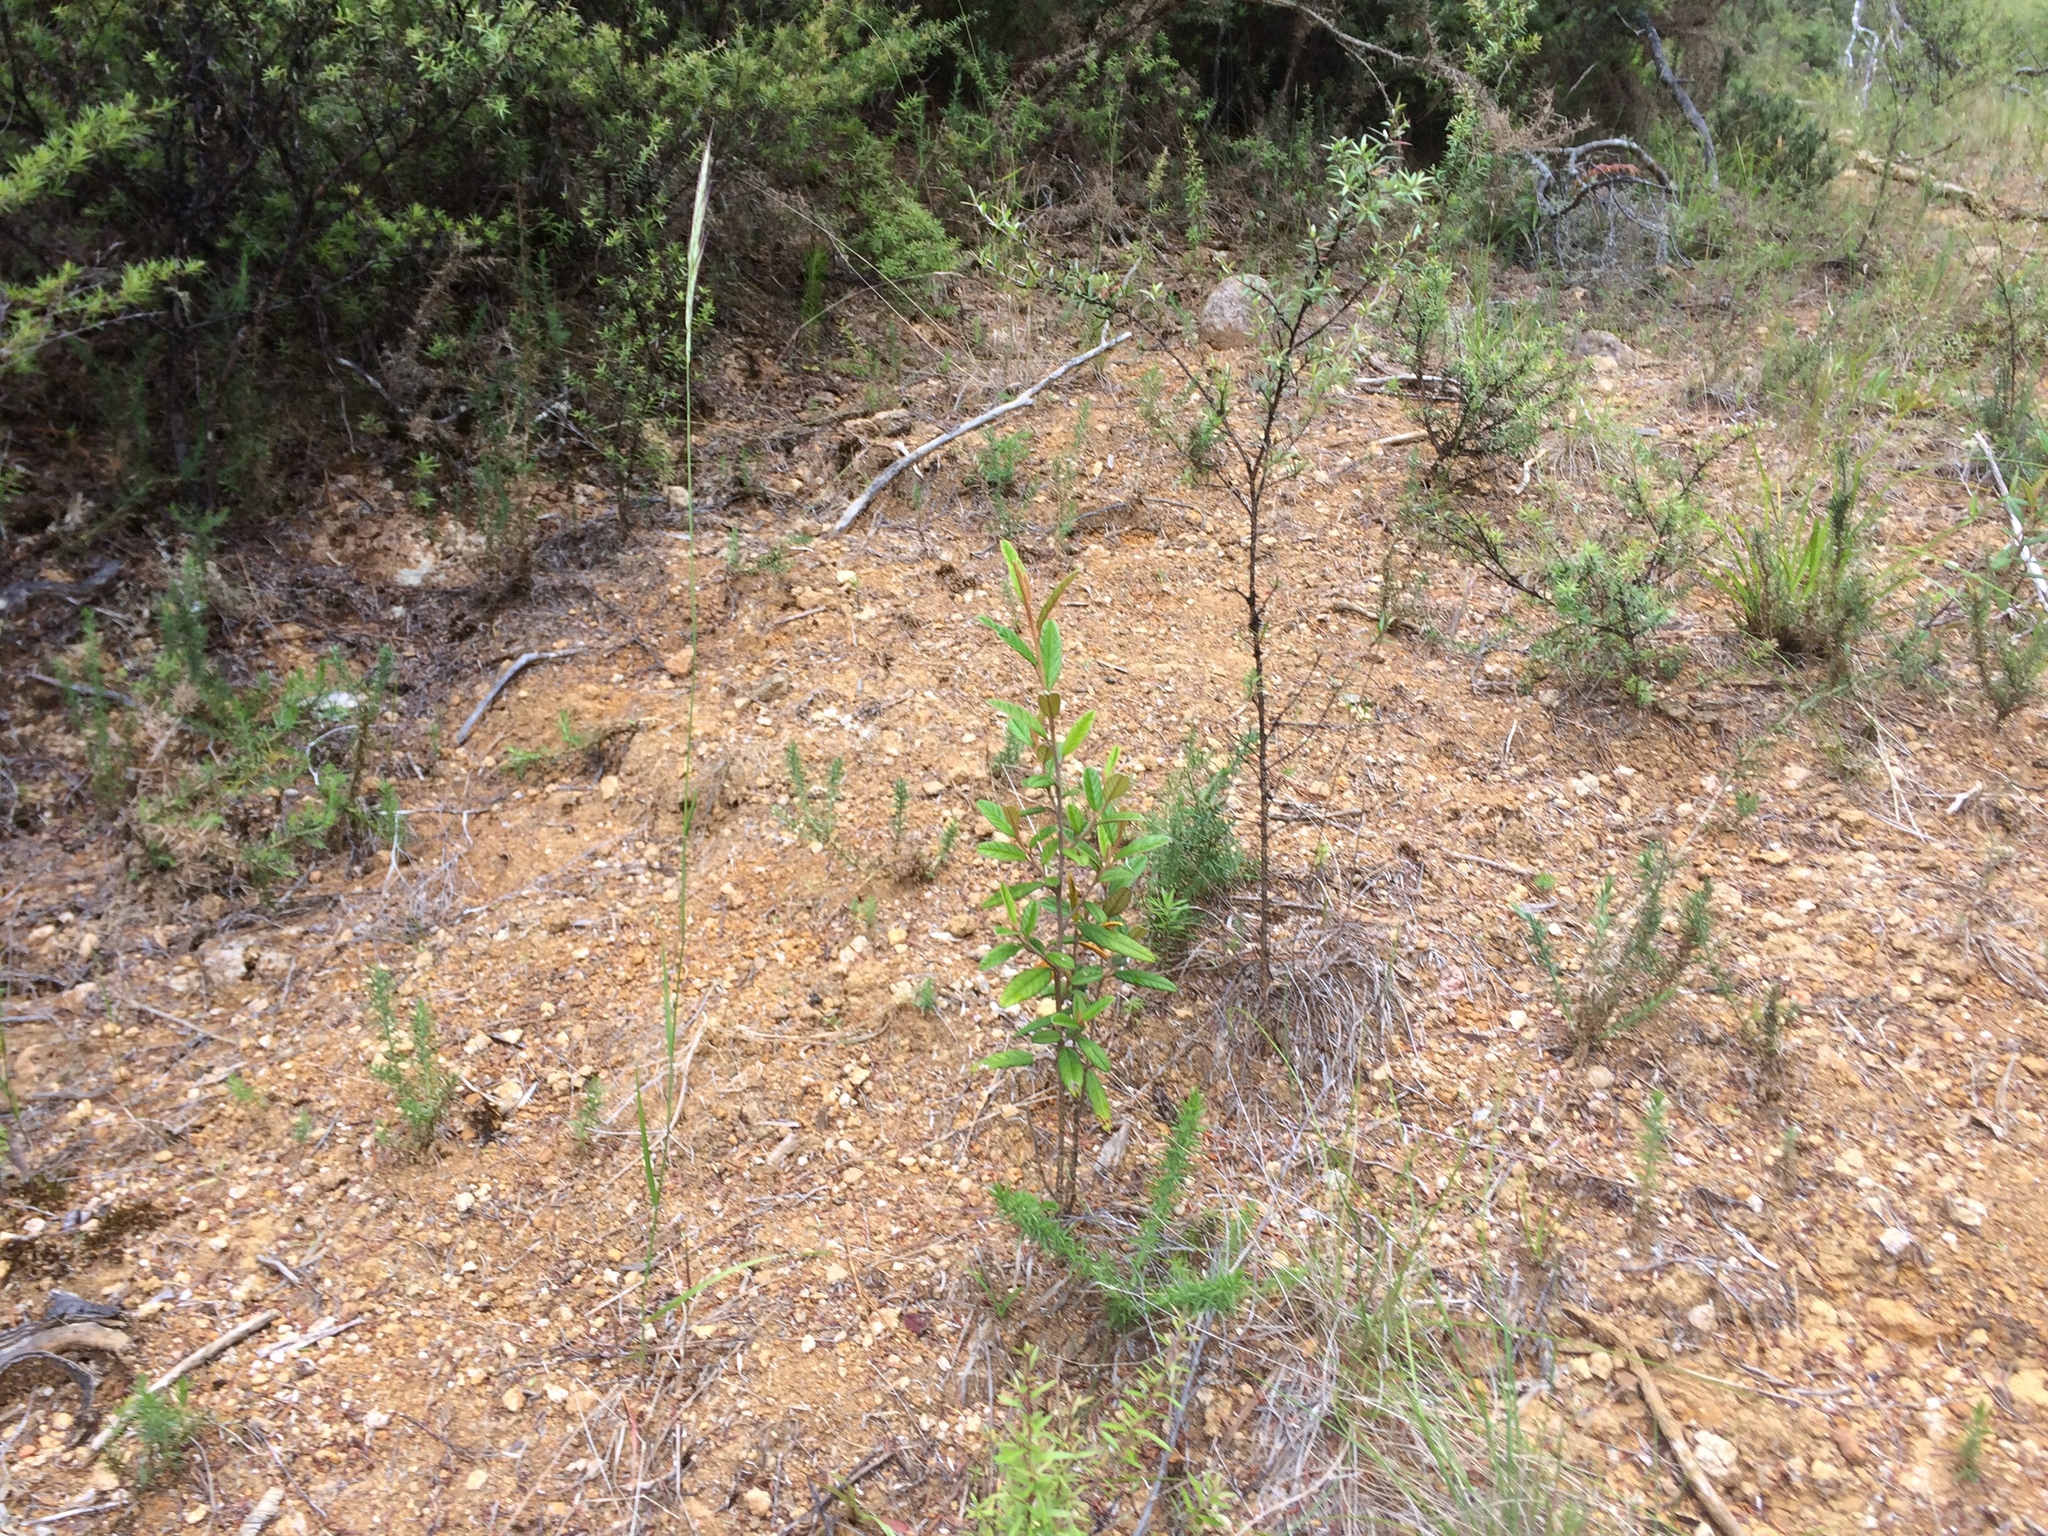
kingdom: Plantae
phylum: Tracheophyta
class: Magnoliopsida
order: Rosales
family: Rhamnaceae
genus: Pomaderris
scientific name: Pomaderris rugosa
